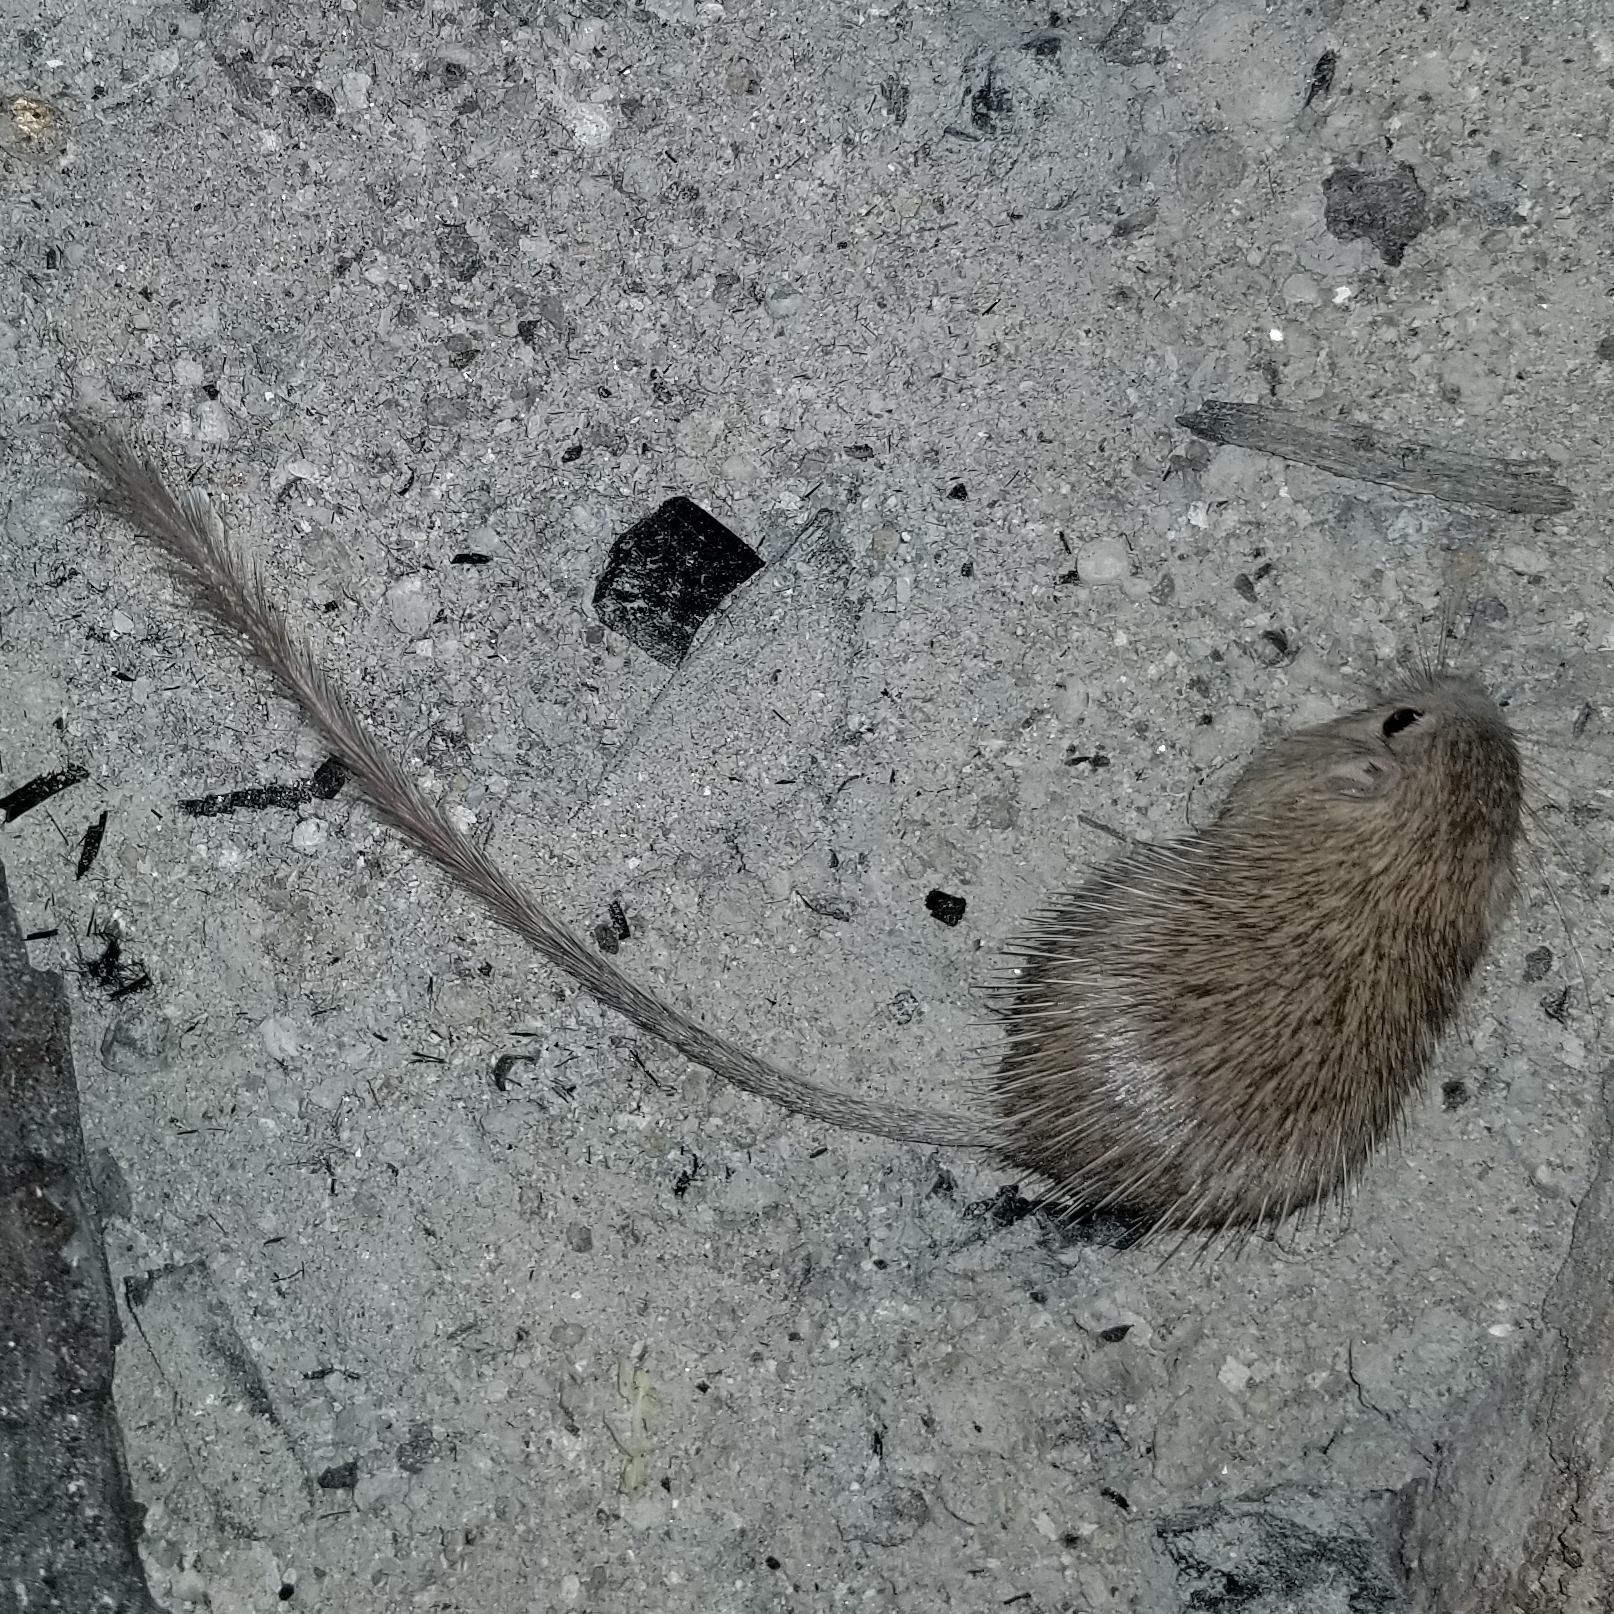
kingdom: Animalia
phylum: Chordata
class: Mammalia
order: Rodentia
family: Heteromyidae
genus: Chaetodipus
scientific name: Chaetodipus spinatus
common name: Spiny pocket mouse
